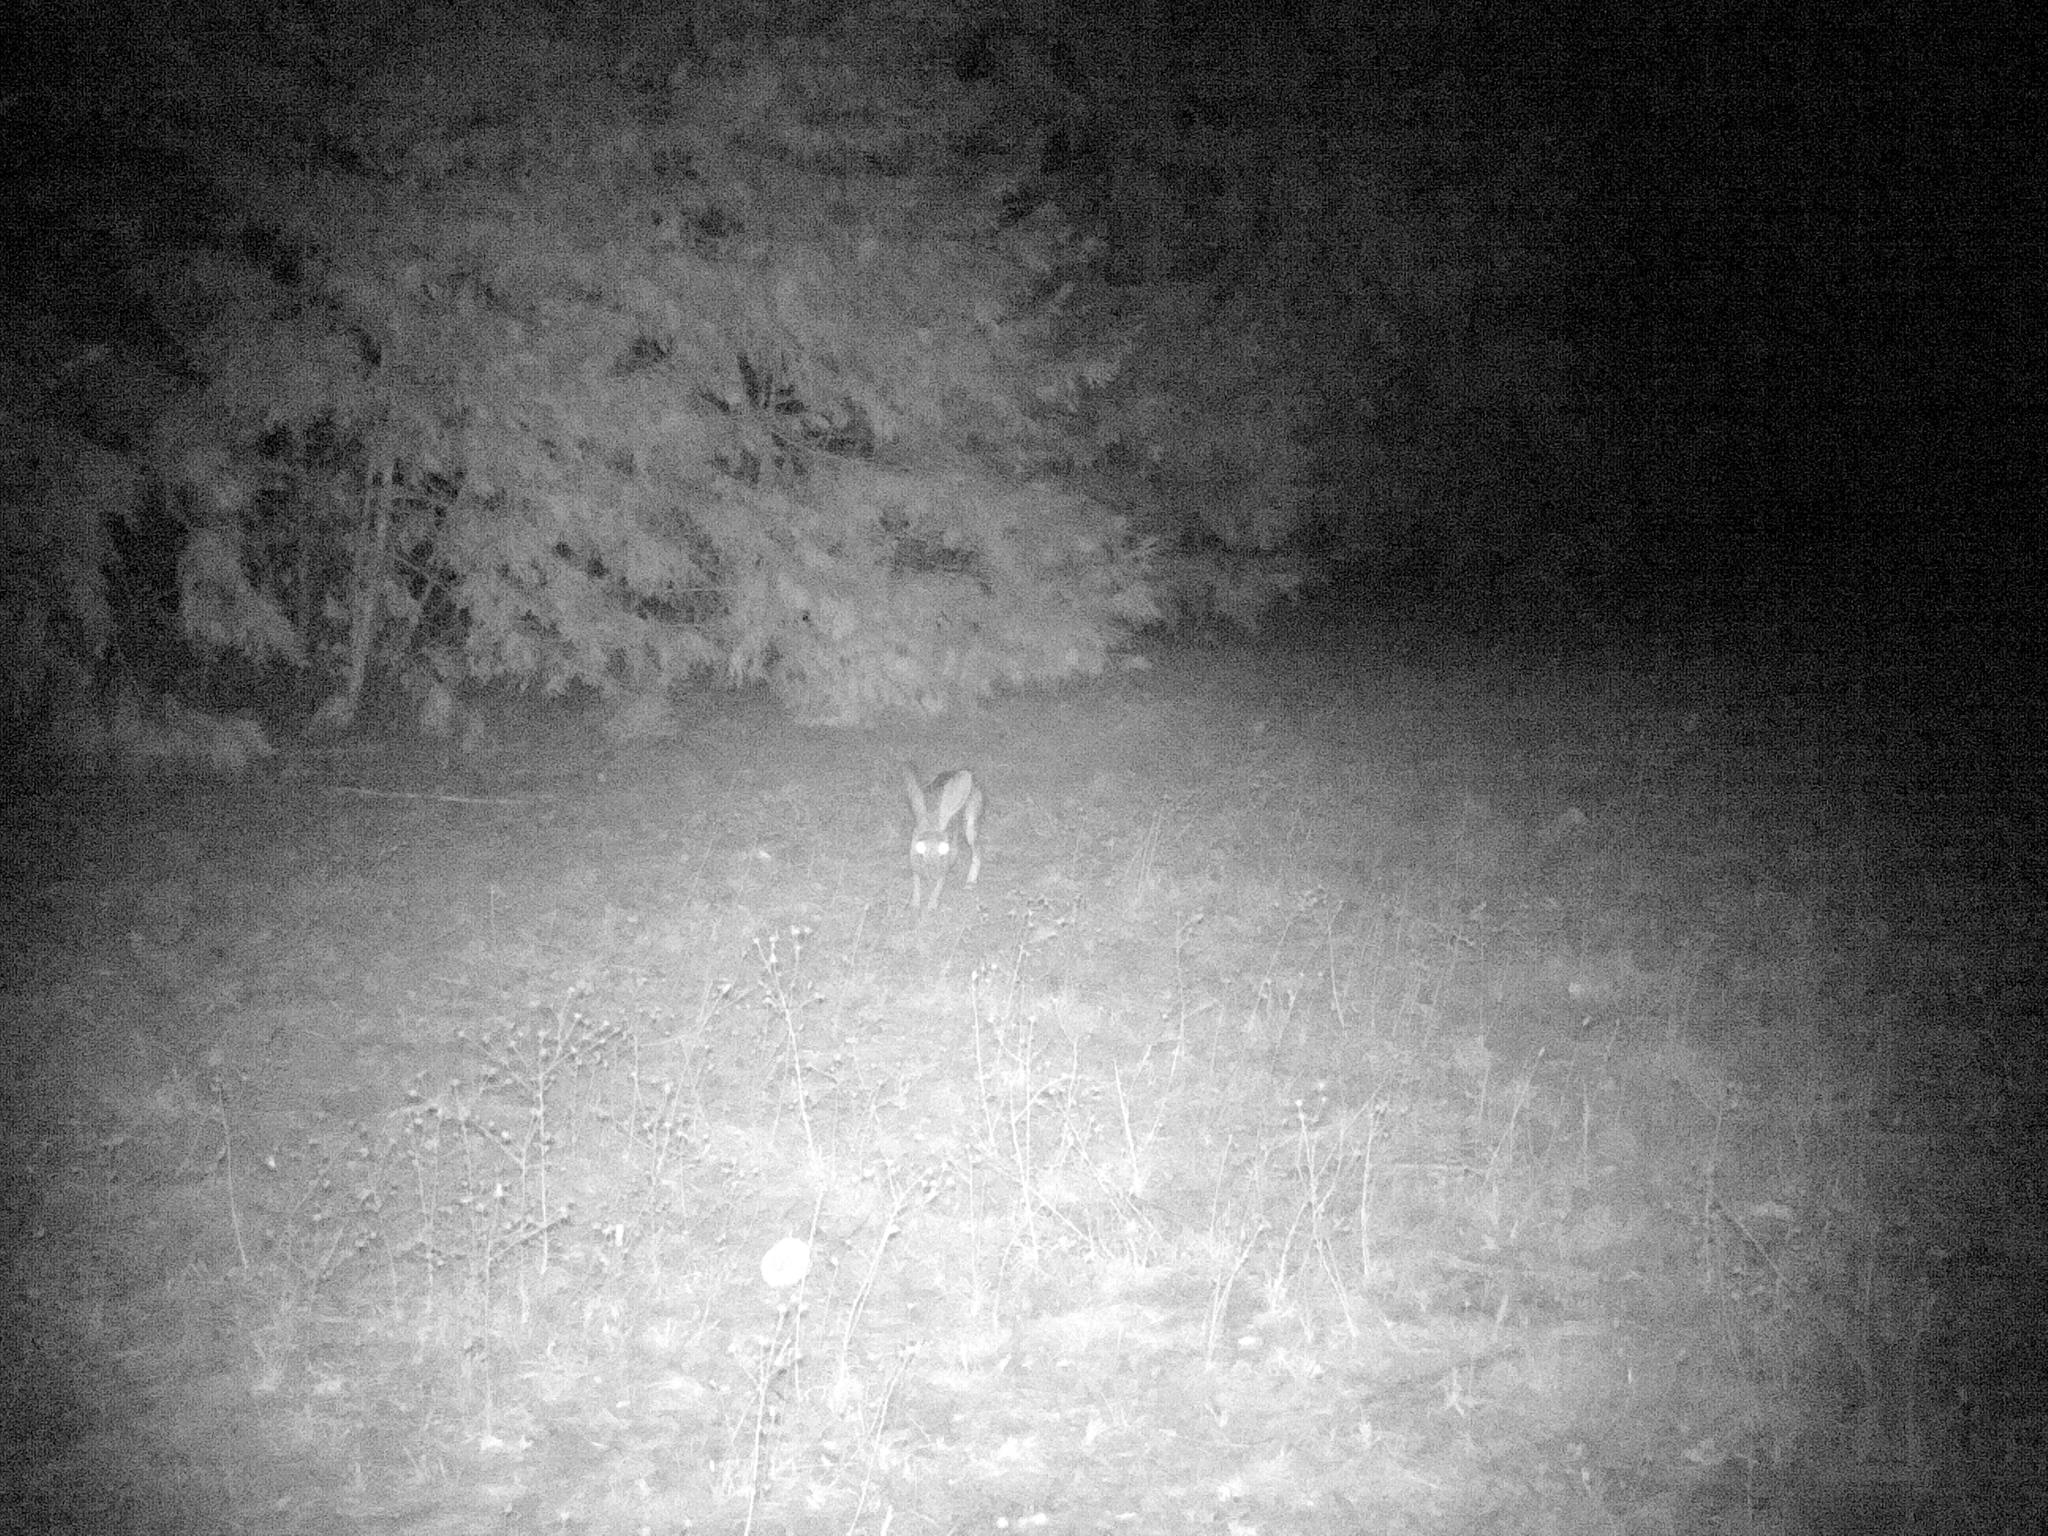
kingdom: Animalia
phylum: Chordata
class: Mammalia
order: Lagomorpha
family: Leporidae
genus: Lepus
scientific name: Lepus californicus
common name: Black-tailed jackrabbit
